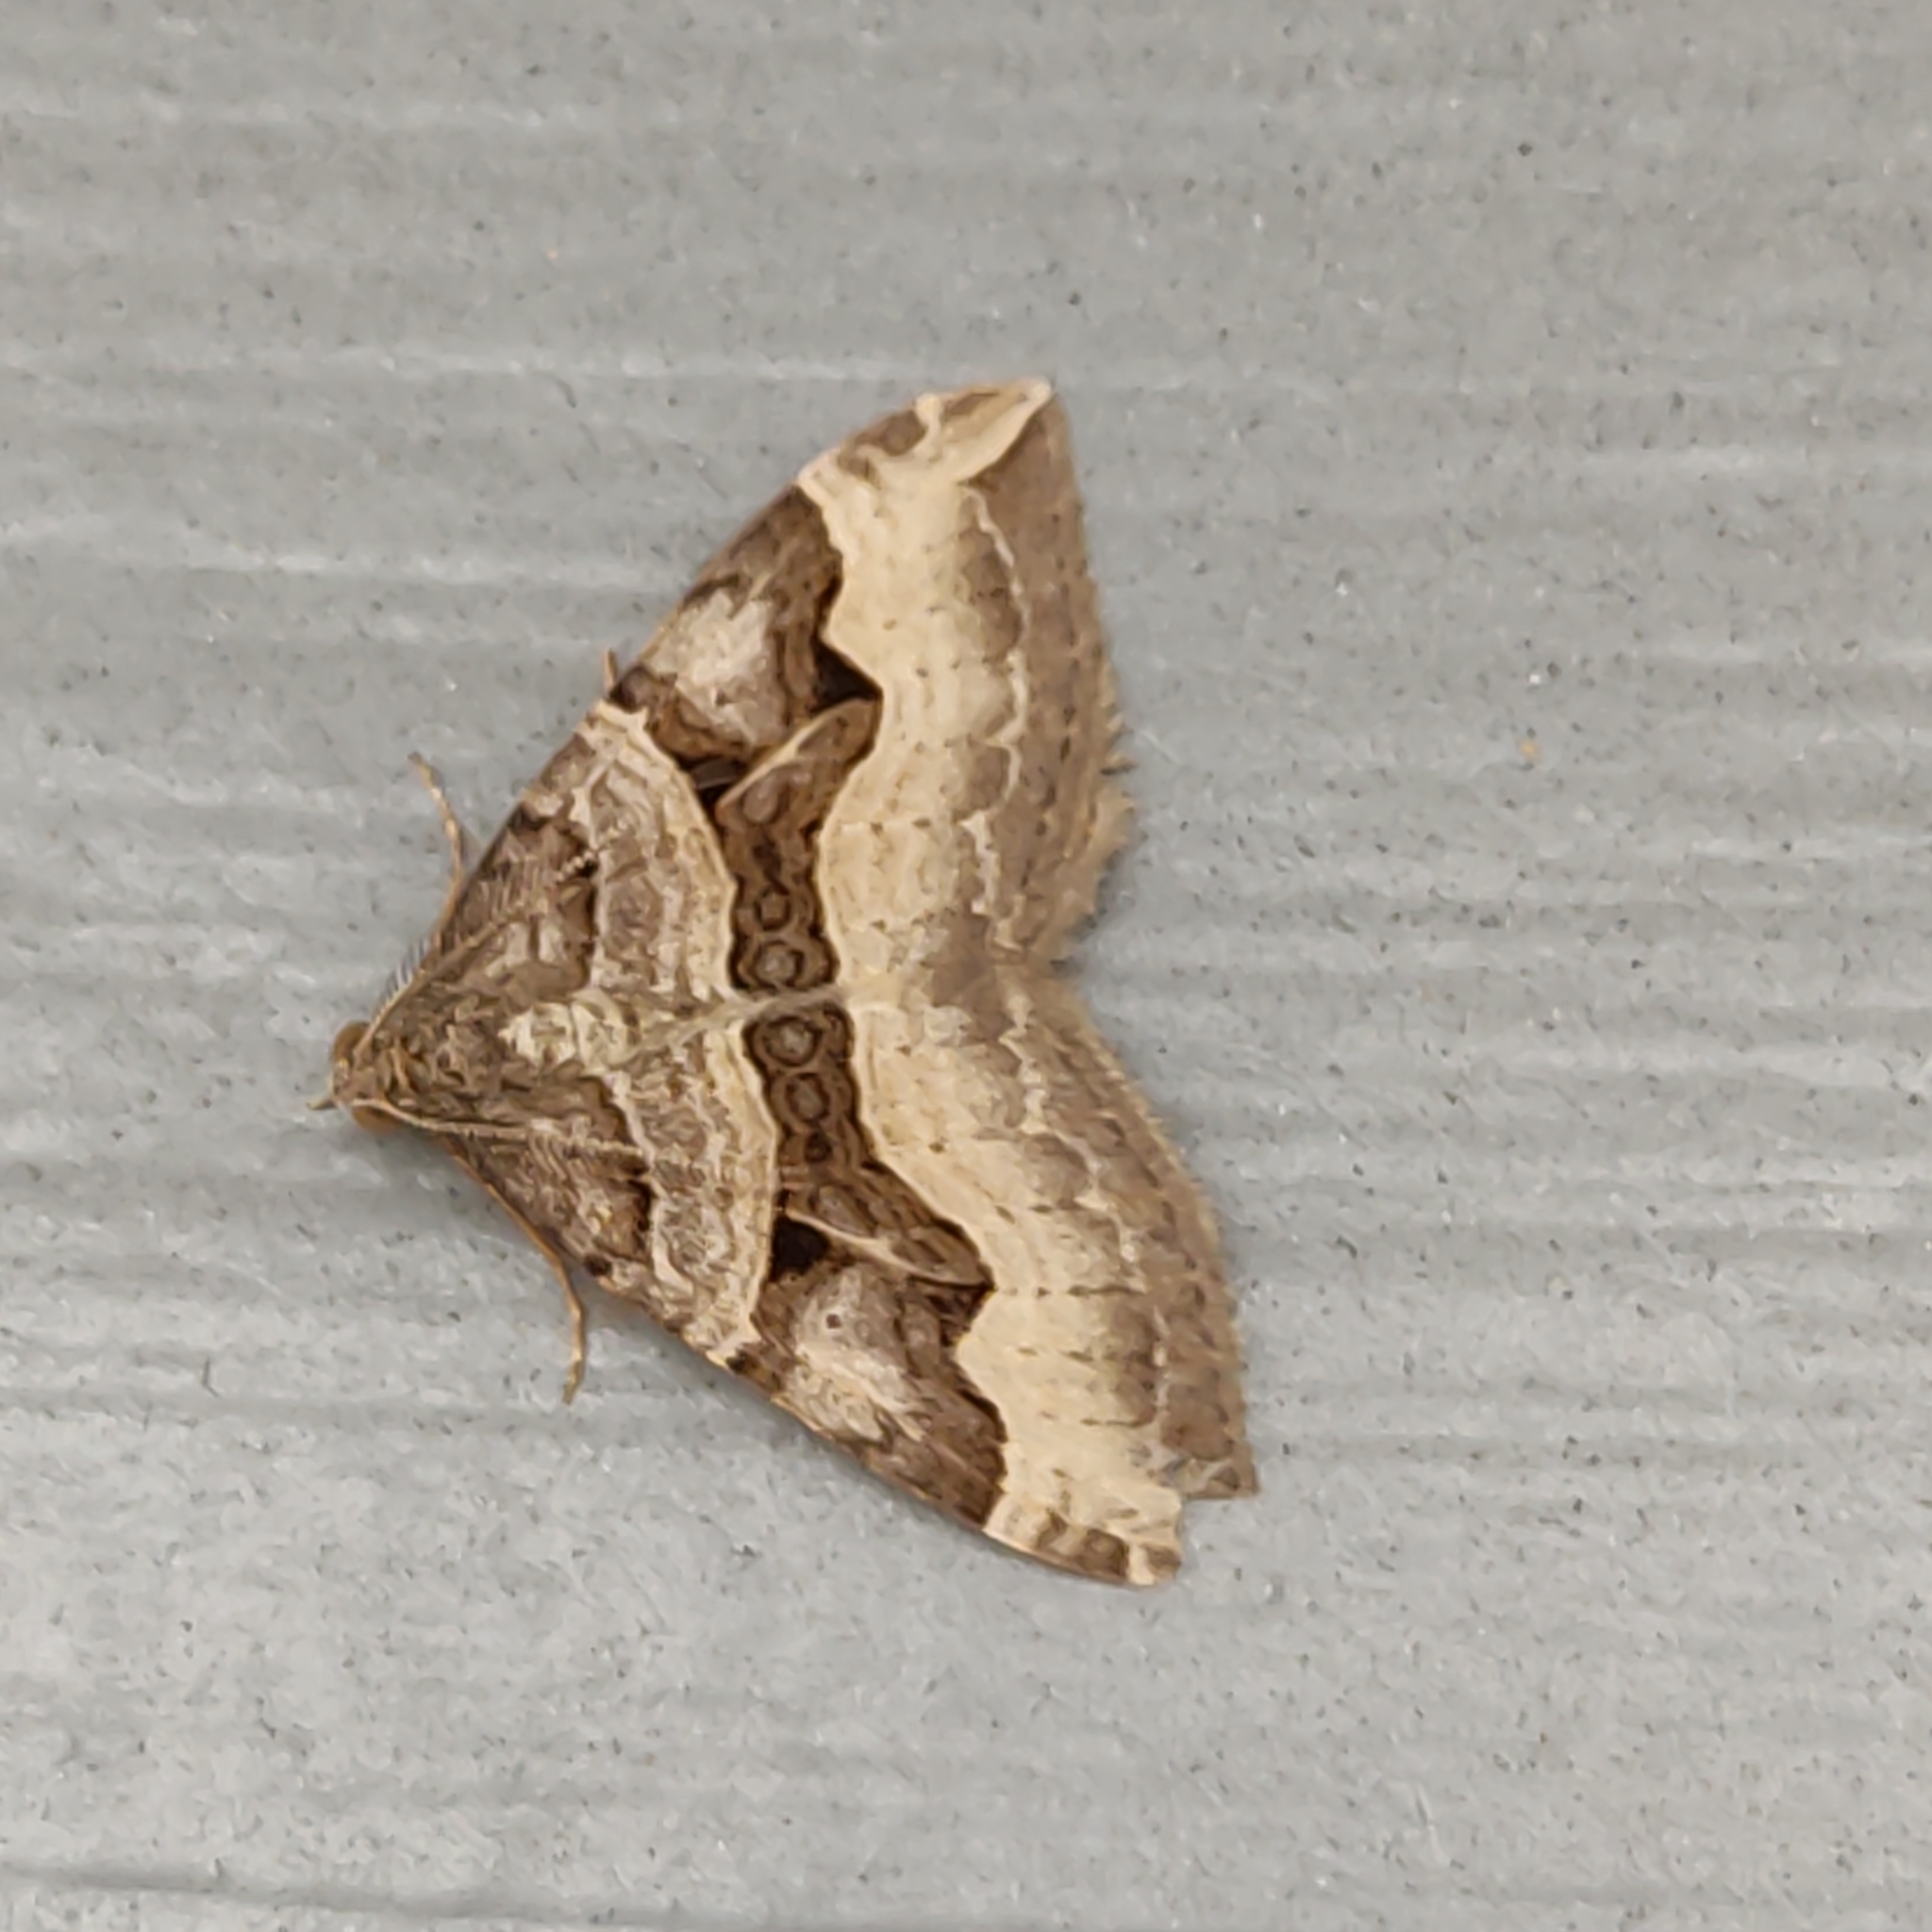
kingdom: Animalia
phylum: Arthropoda
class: Insecta
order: Lepidoptera
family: Geometridae
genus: Xanthorhoe
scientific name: Xanthorhoe semifissata
